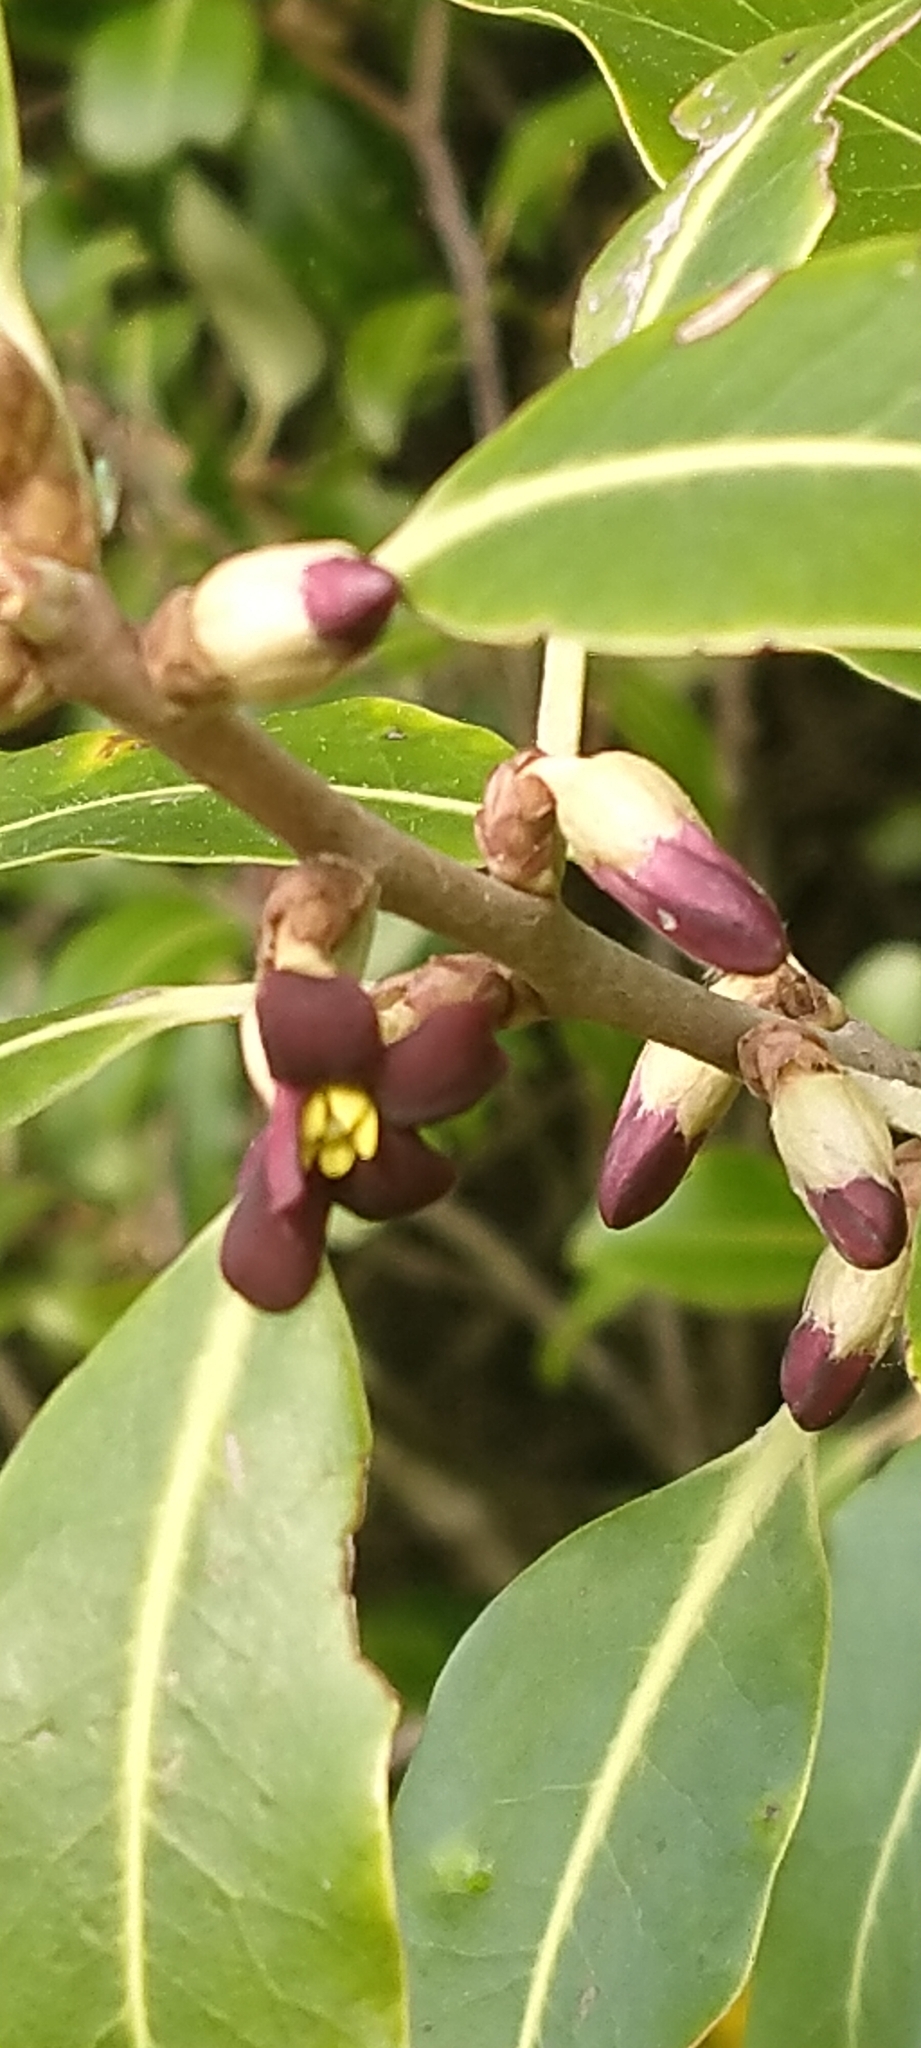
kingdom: Plantae
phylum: Tracheophyta
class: Magnoliopsida
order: Apiales
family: Pittosporaceae
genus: Pittosporum
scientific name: Pittosporum colensoi
